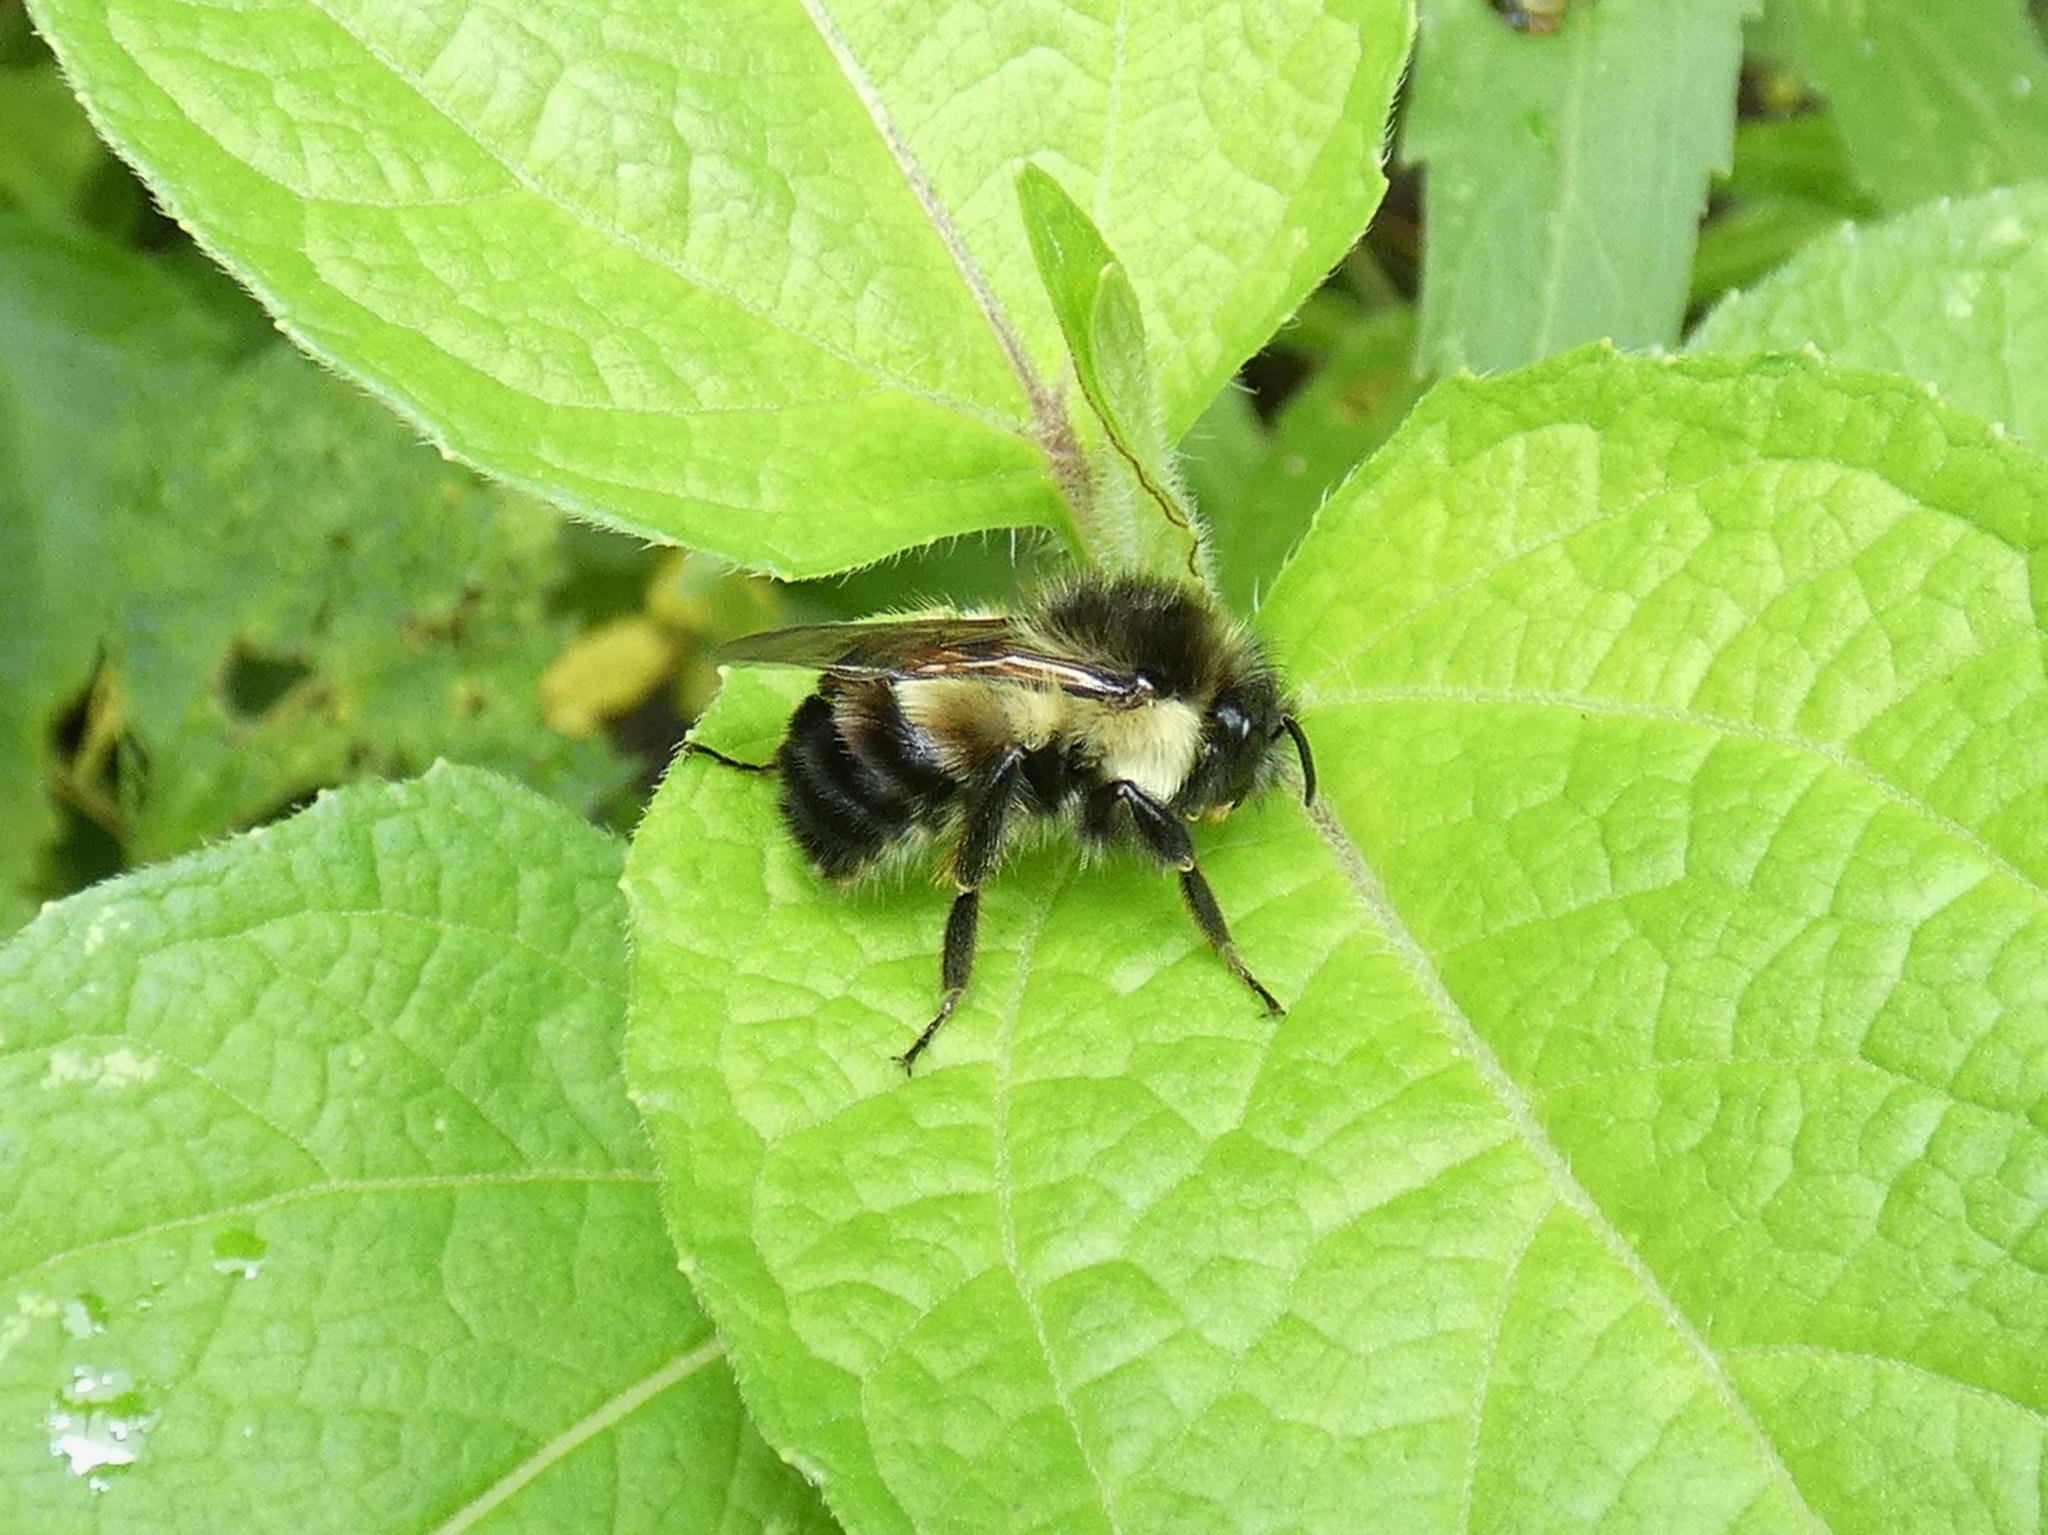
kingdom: Animalia
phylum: Arthropoda
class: Insecta
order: Hymenoptera
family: Apidae
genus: Bombus
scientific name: Bombus ephippiatus
